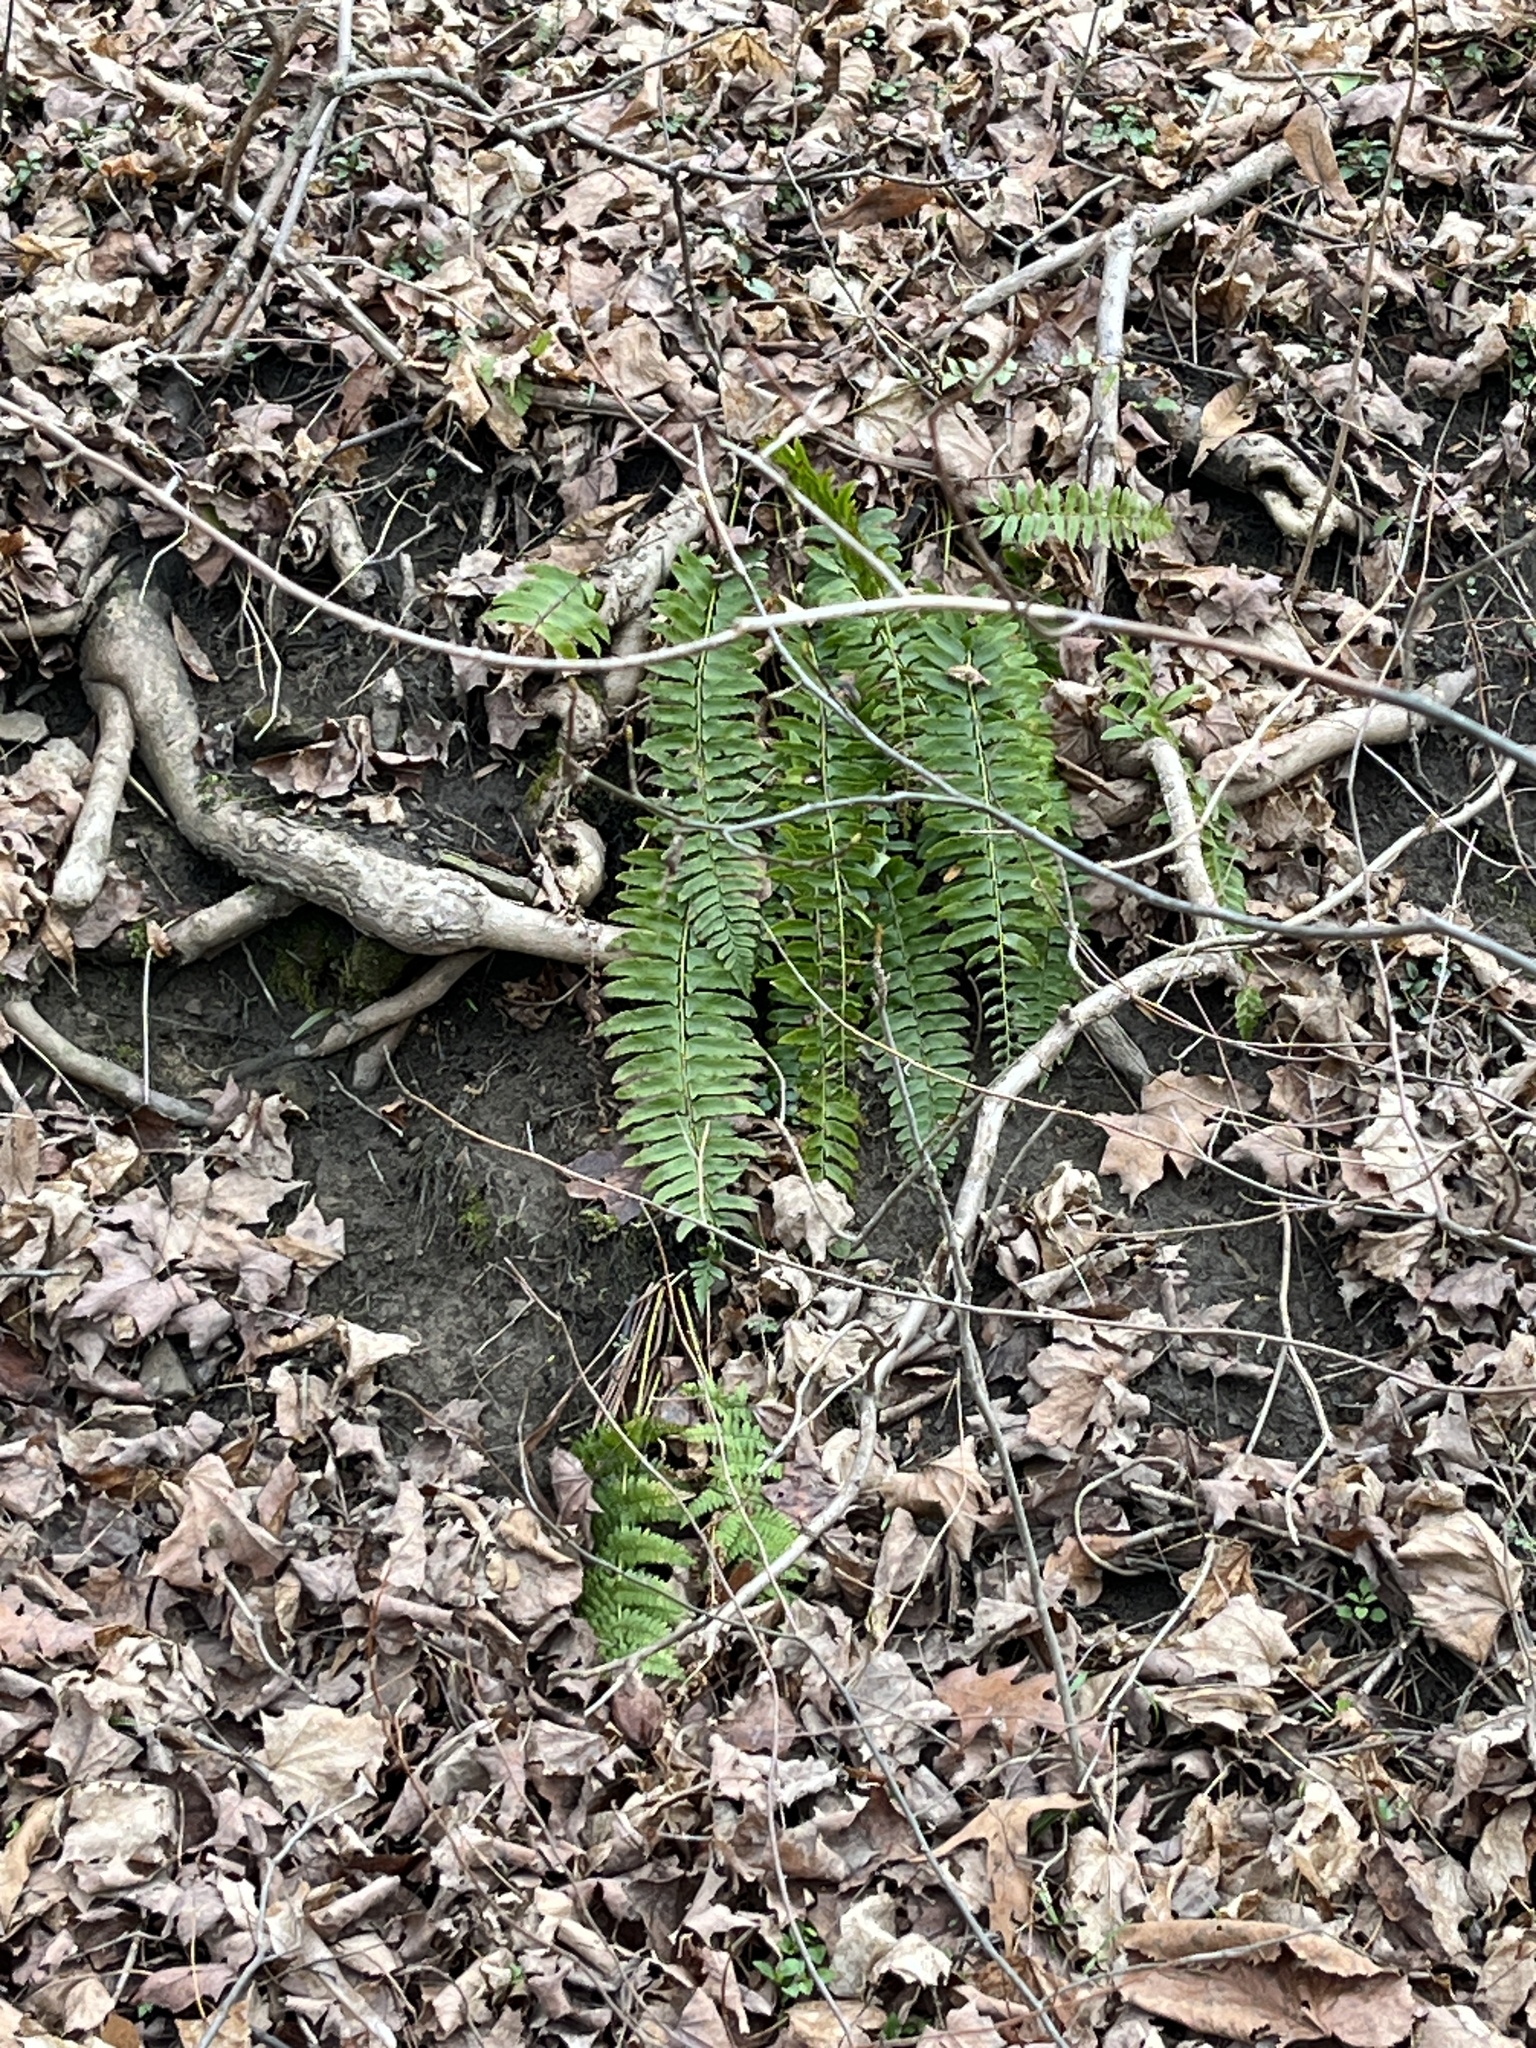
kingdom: Plantae
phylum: Tracheophyta
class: Polypodiopsida
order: Polypodiales
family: Dryopteridaceae
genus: Polystichum
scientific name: Polystichum acrostichoides
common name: Christmas fern
